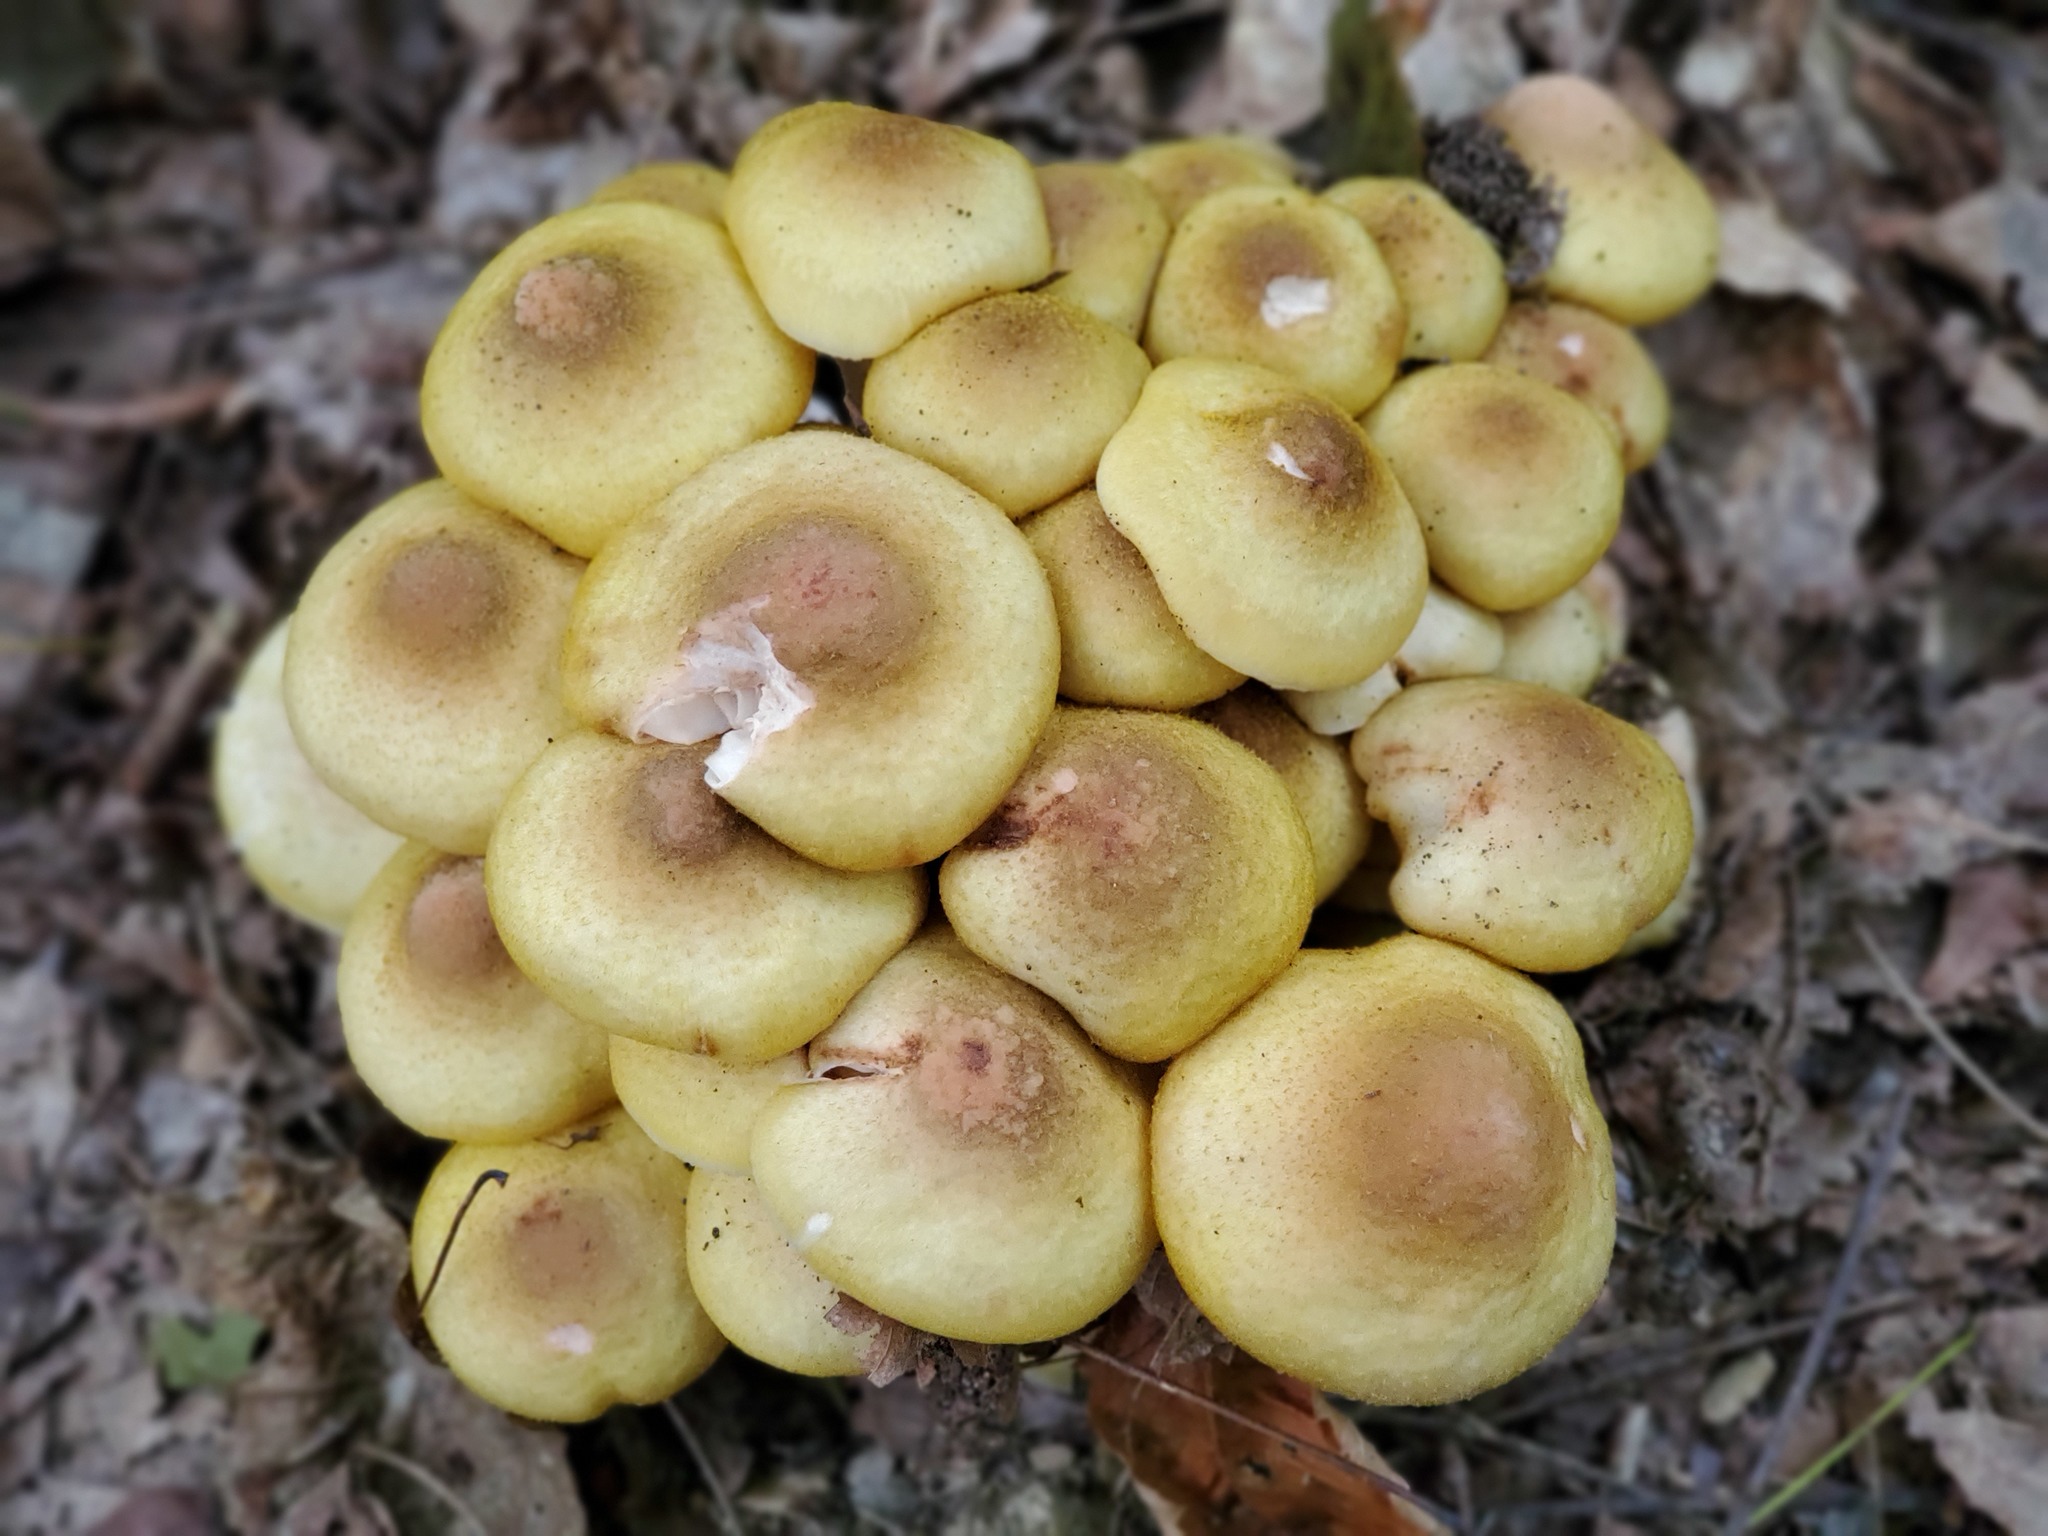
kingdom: Fungi
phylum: Basidiomycota
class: Agaricomycetes
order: Agaricales
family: Physalacriaceae
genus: Armillaria
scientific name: Armillaria mellea
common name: Honey fungus
